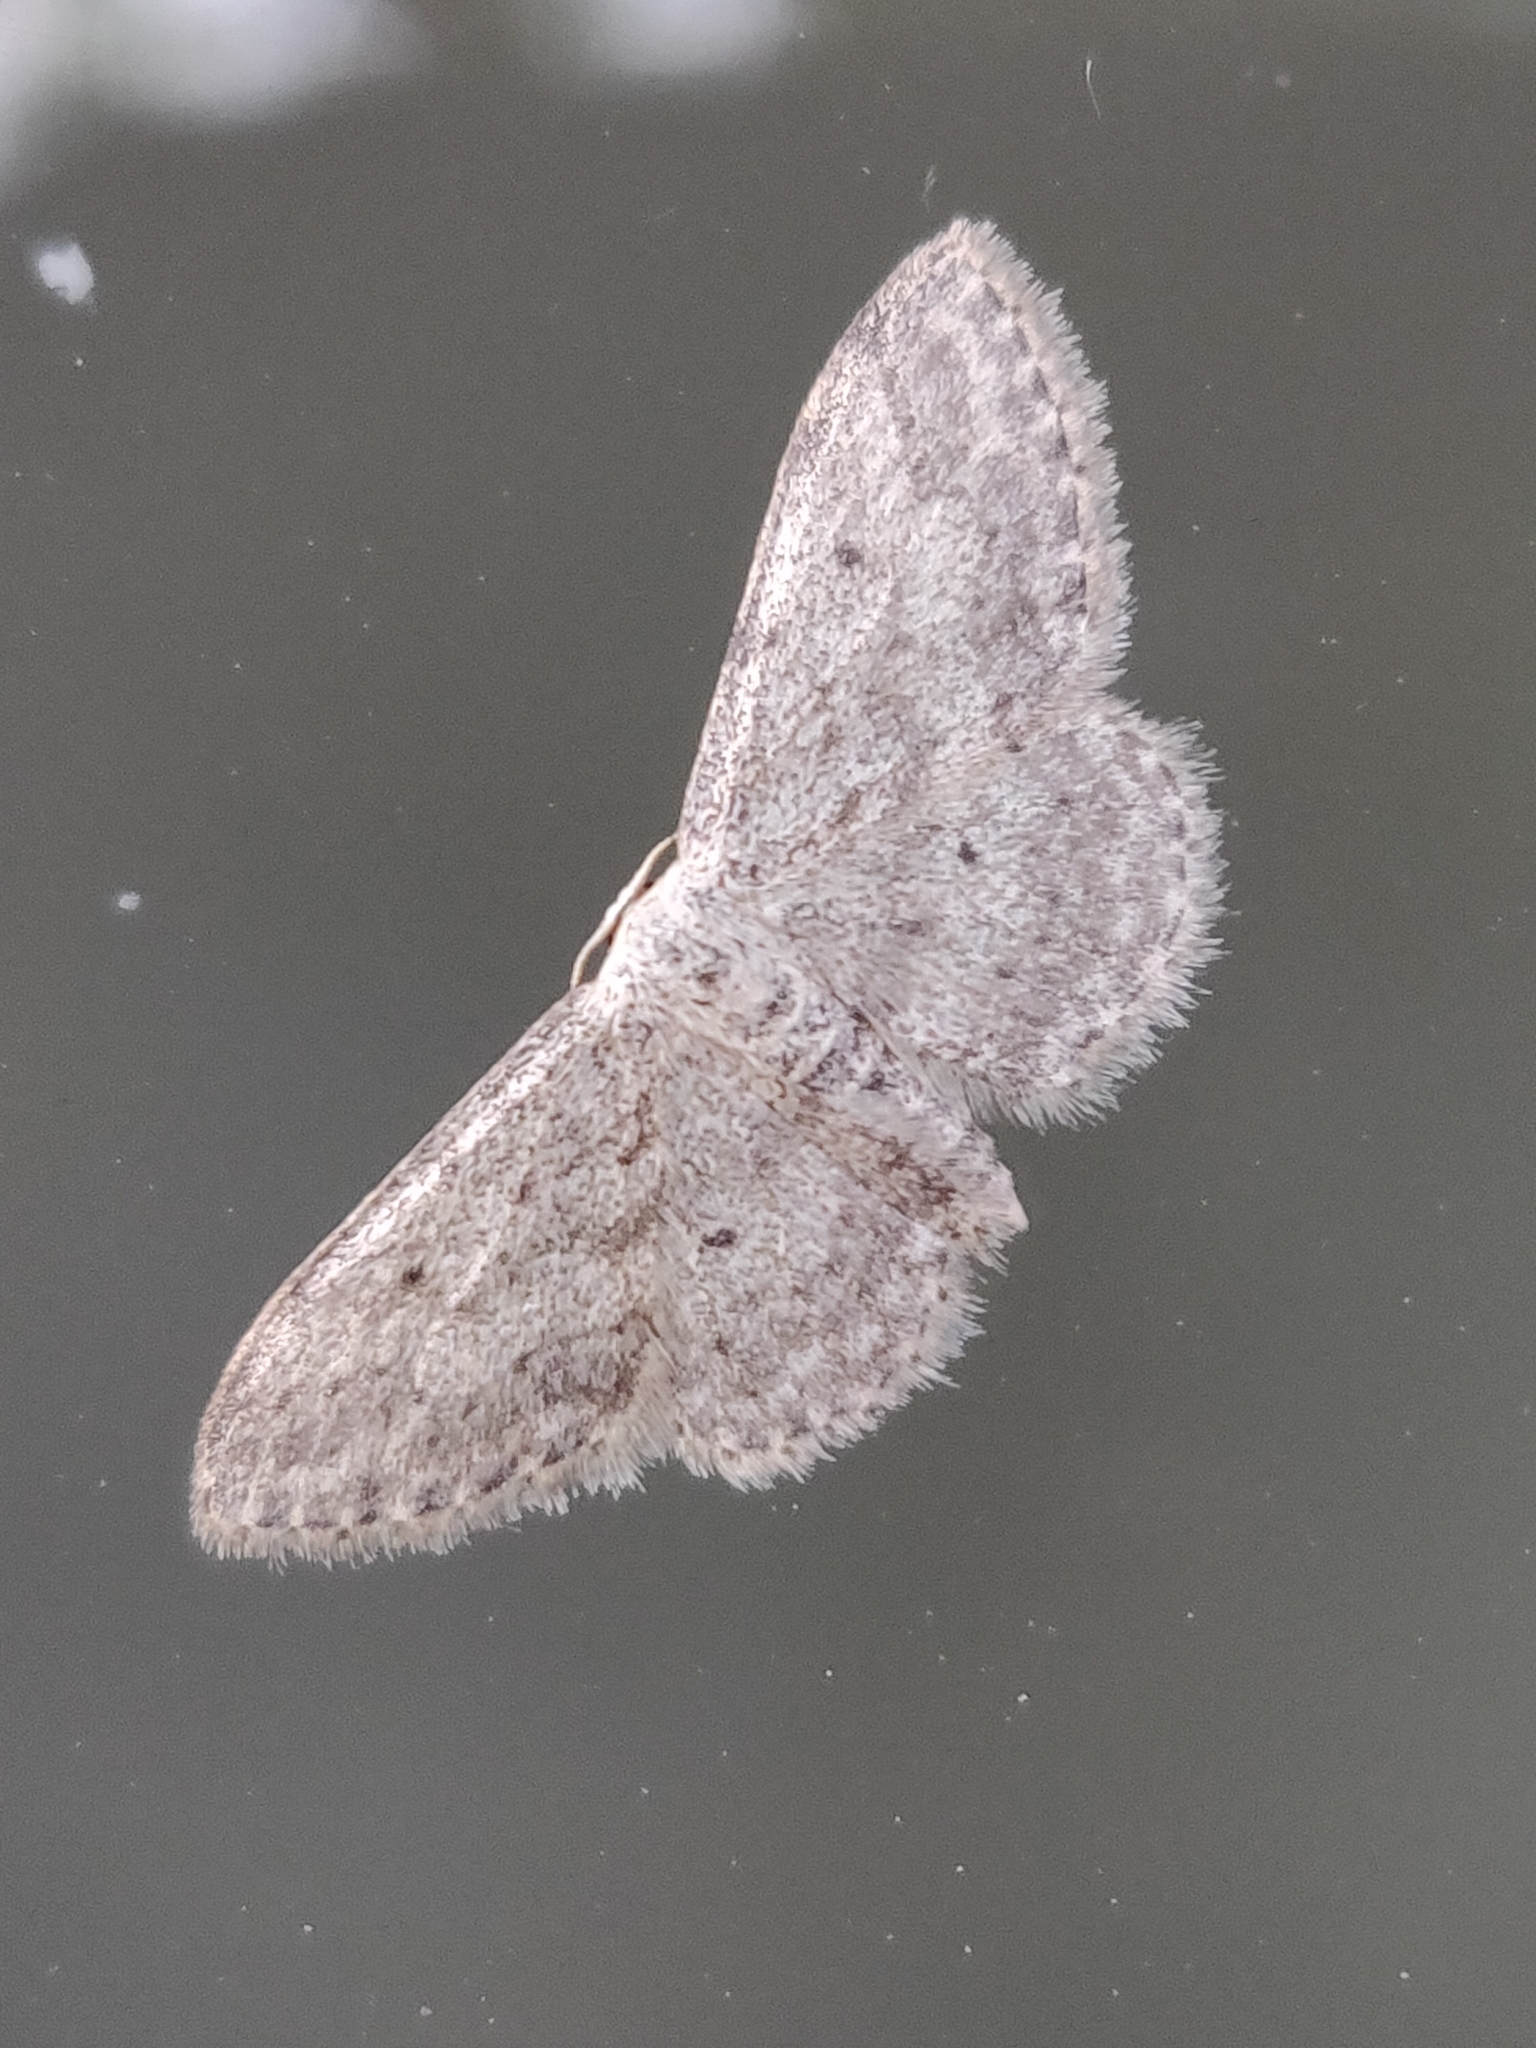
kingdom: Animalia
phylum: Arthropoda
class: Insecta
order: Lepidoptera
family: Geometridae
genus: Idaea
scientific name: Idaea seriata
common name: Small dusty wave
